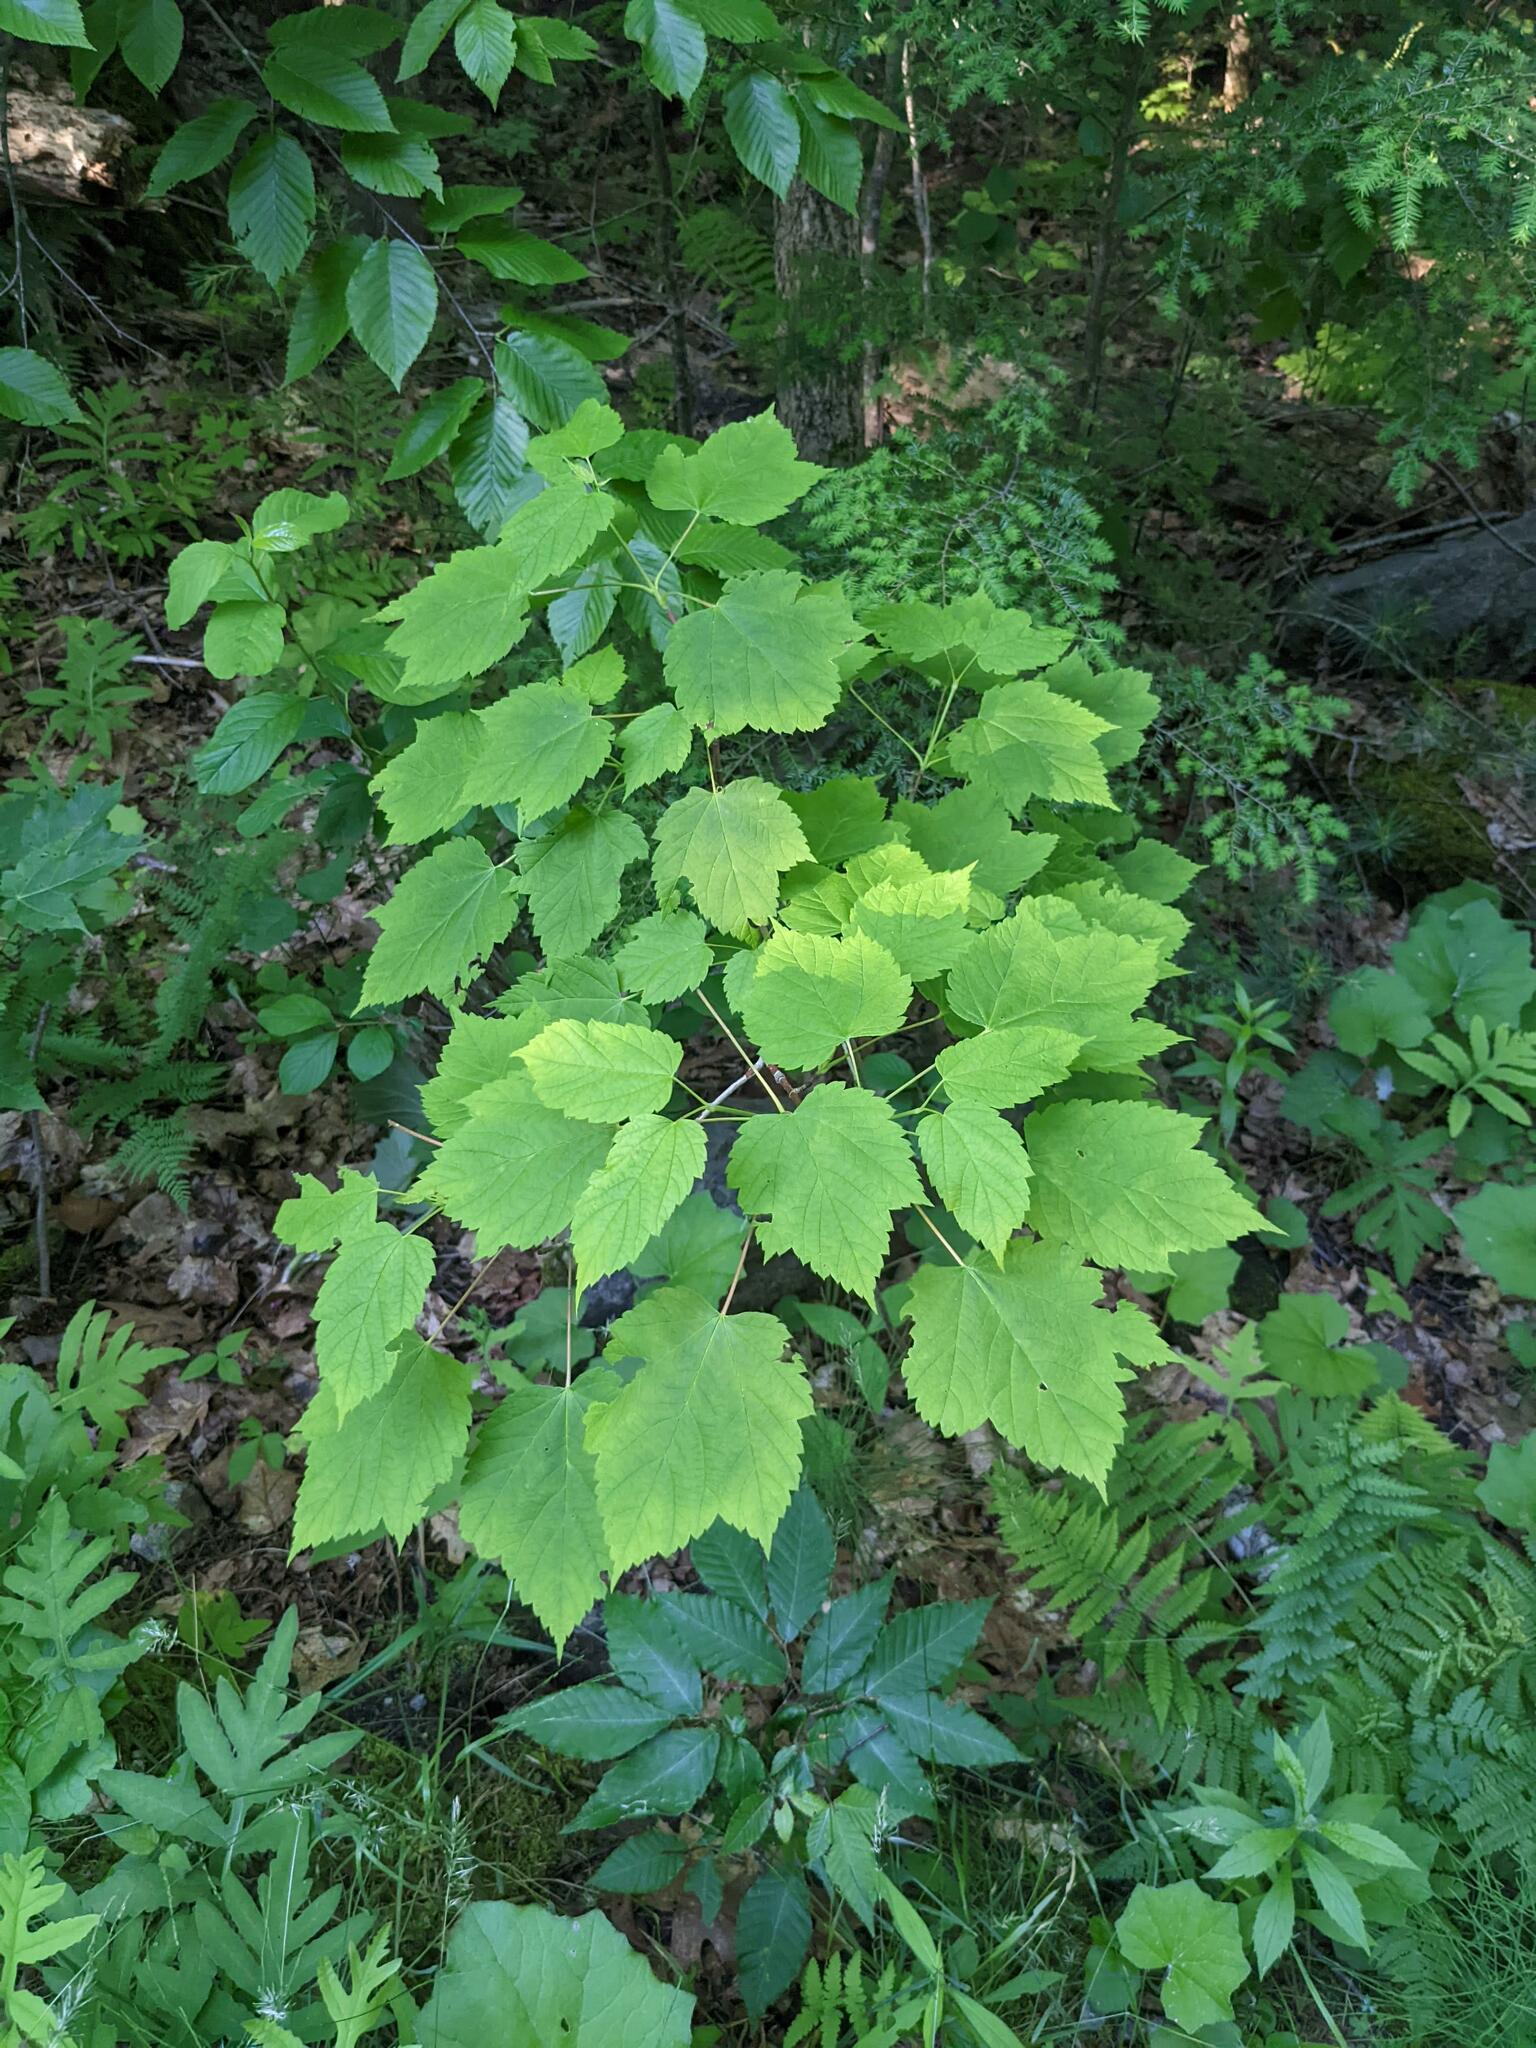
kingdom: Plantae
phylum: Tracheophyta
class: Magnoliopsida
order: Sapindales
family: Sapindaceae
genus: Acer
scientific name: Acer spicatum
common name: Mountain maple
